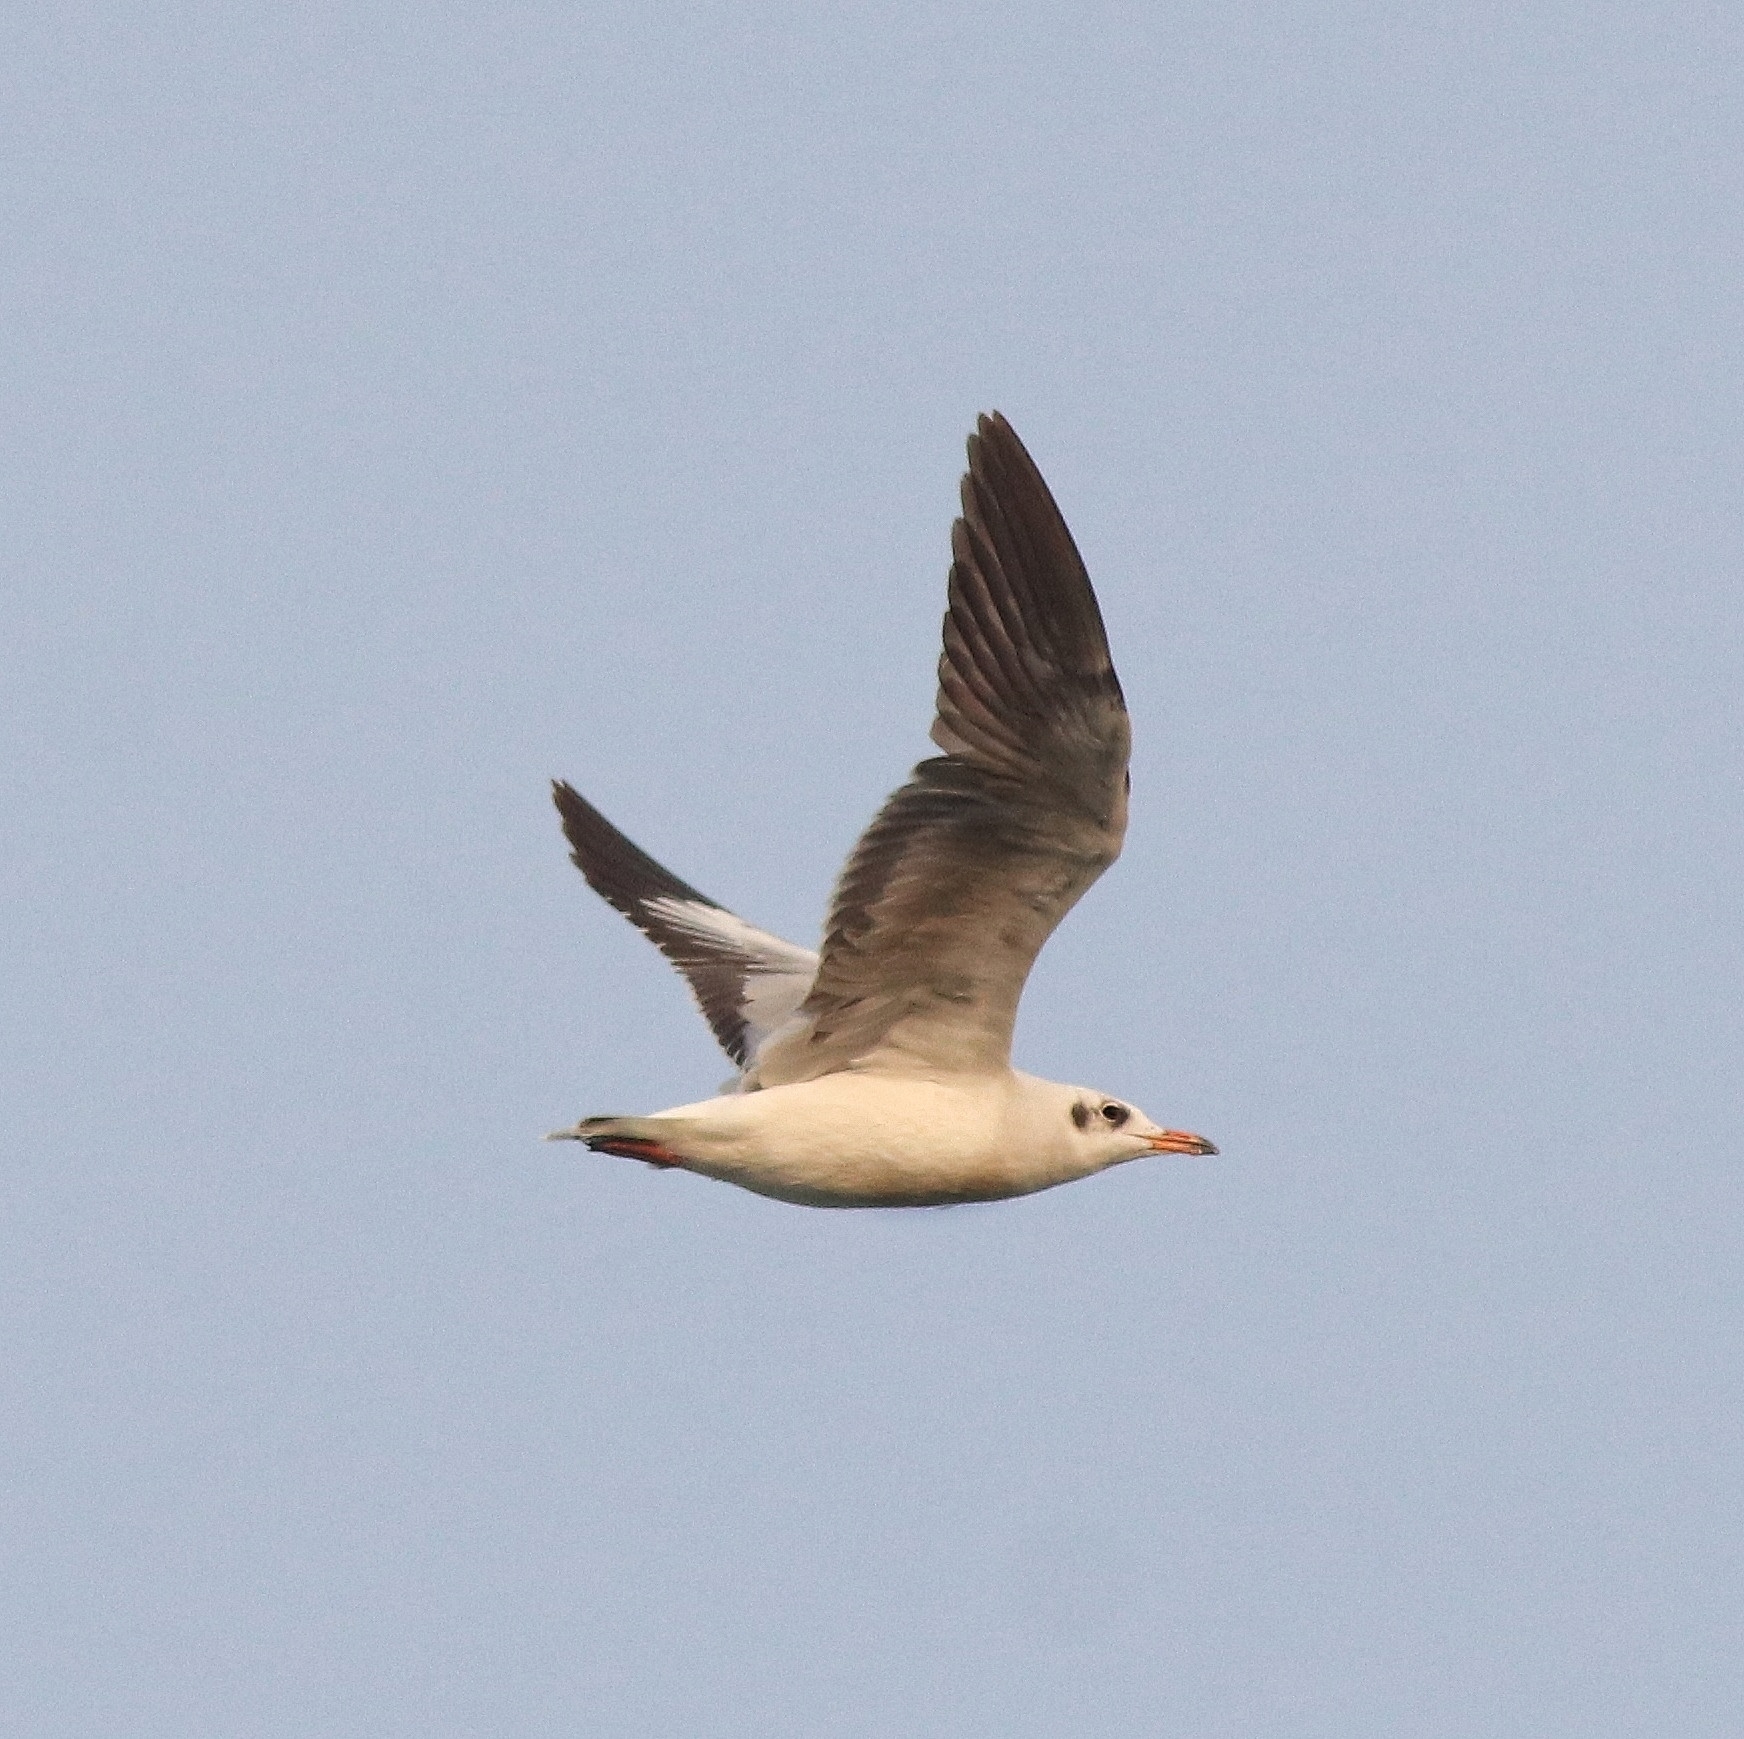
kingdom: Animalia
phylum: Chordata
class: Aves
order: Charadriiformes
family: Laridae
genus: Chroicocephalus
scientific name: Chroicocephalus ridibundus
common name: Black-headed gull
